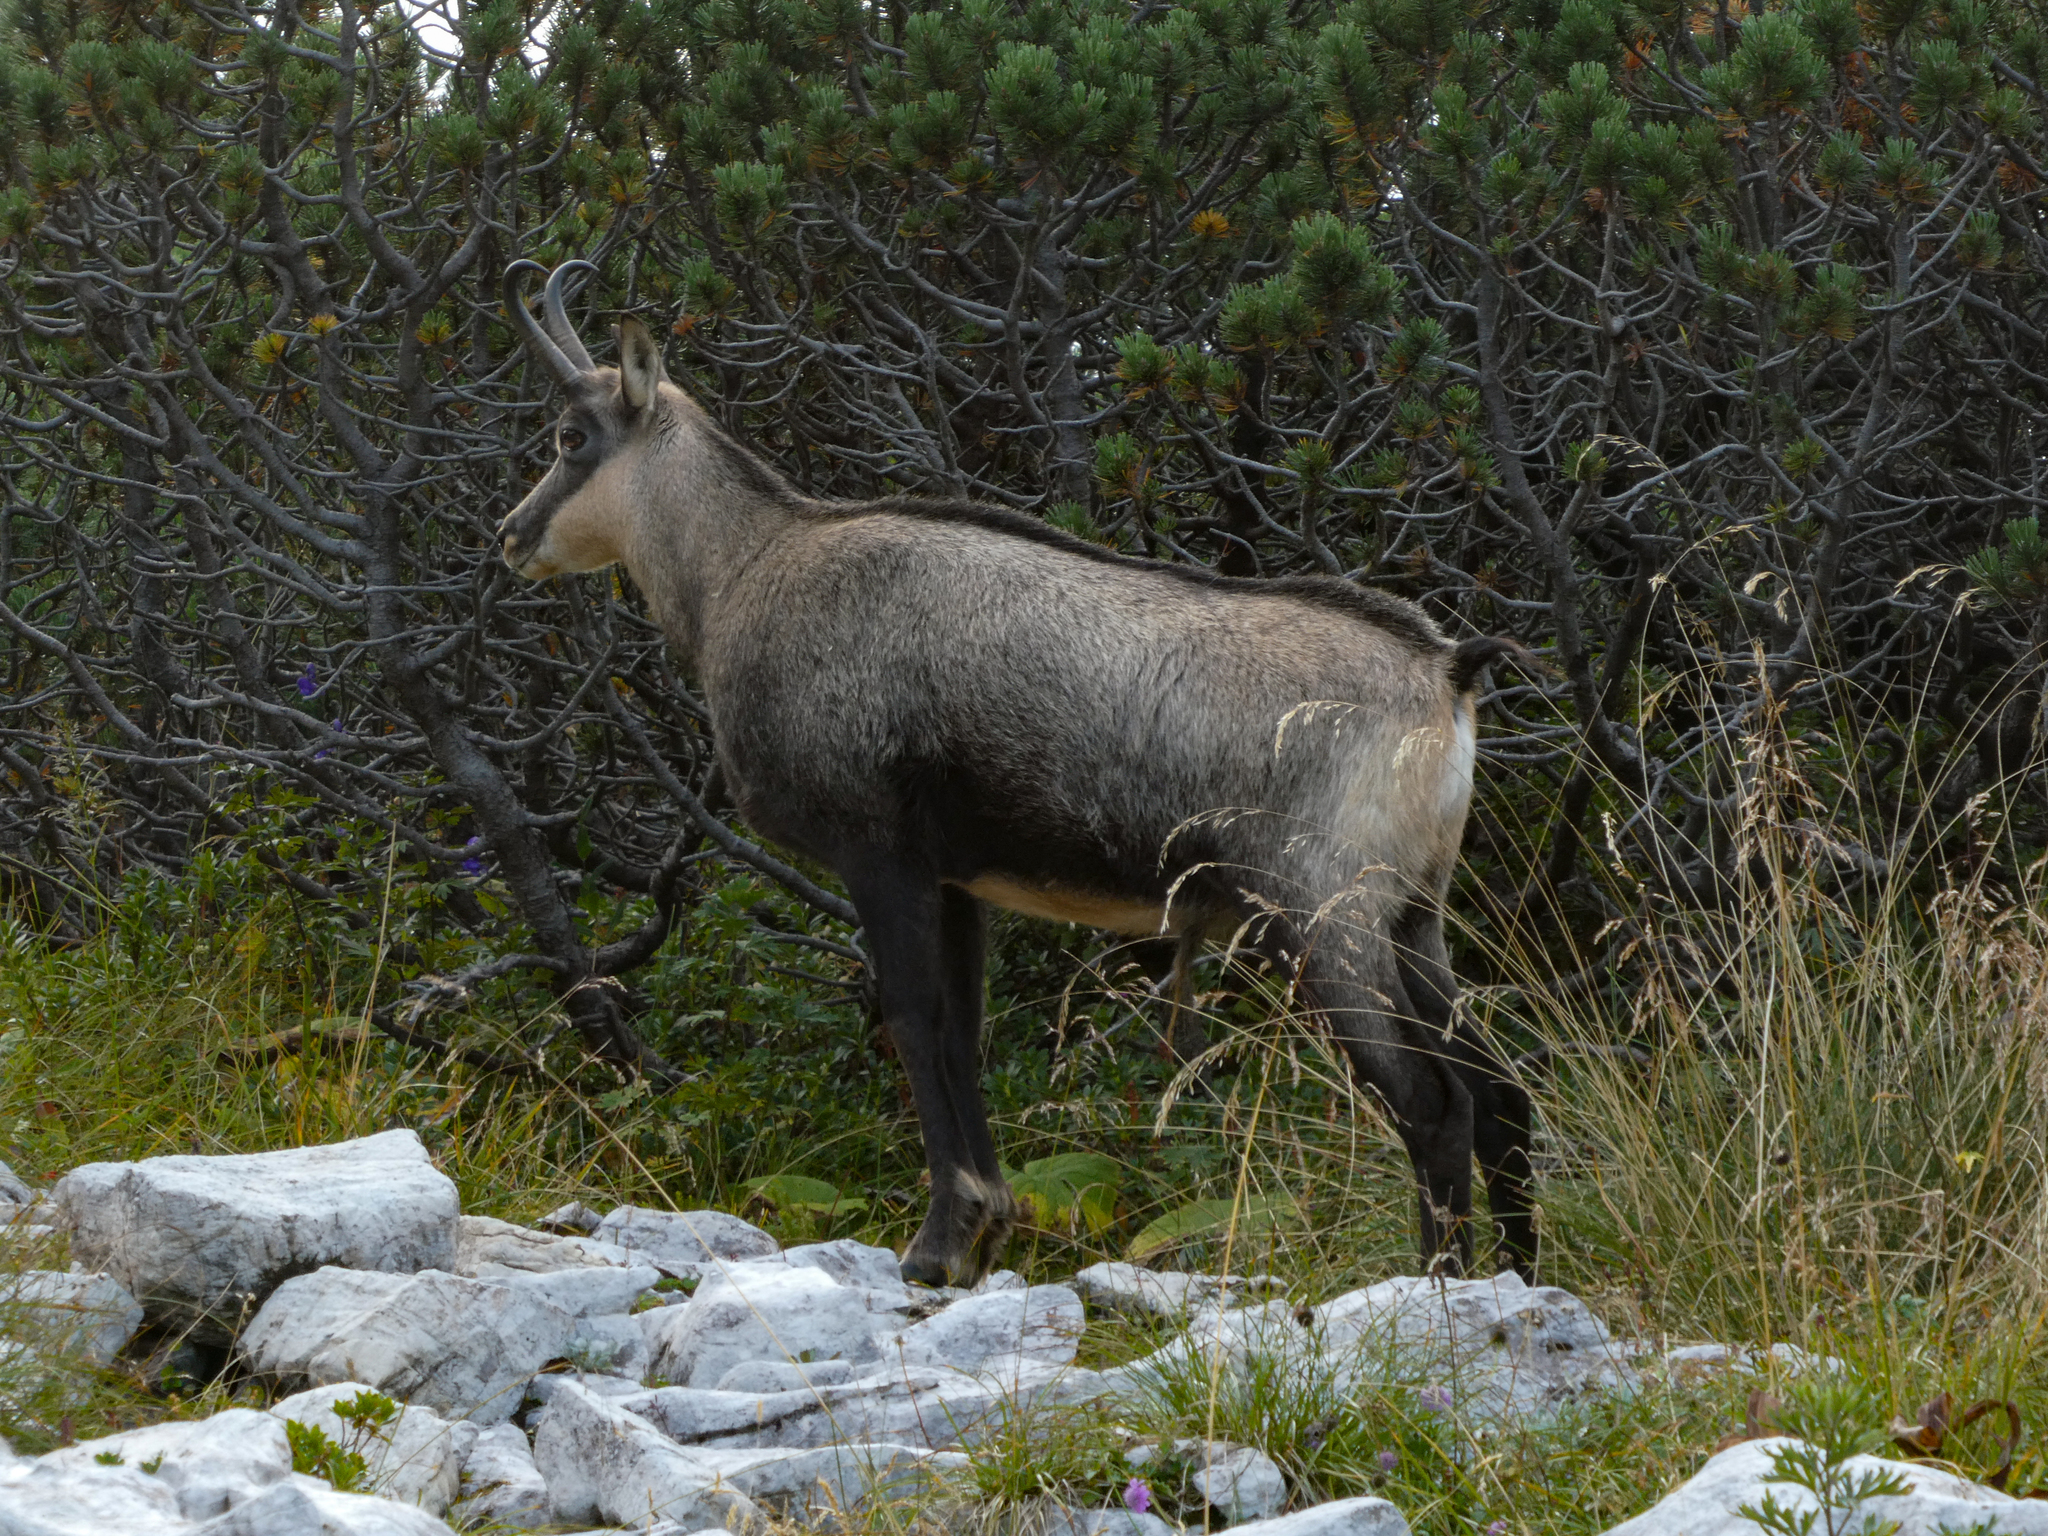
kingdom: Animalia
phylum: Chordata
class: Mammalia
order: Artiodactyla
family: Bovidae
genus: Rupicapra
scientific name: Rupicapra rupicapra
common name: Chamois
